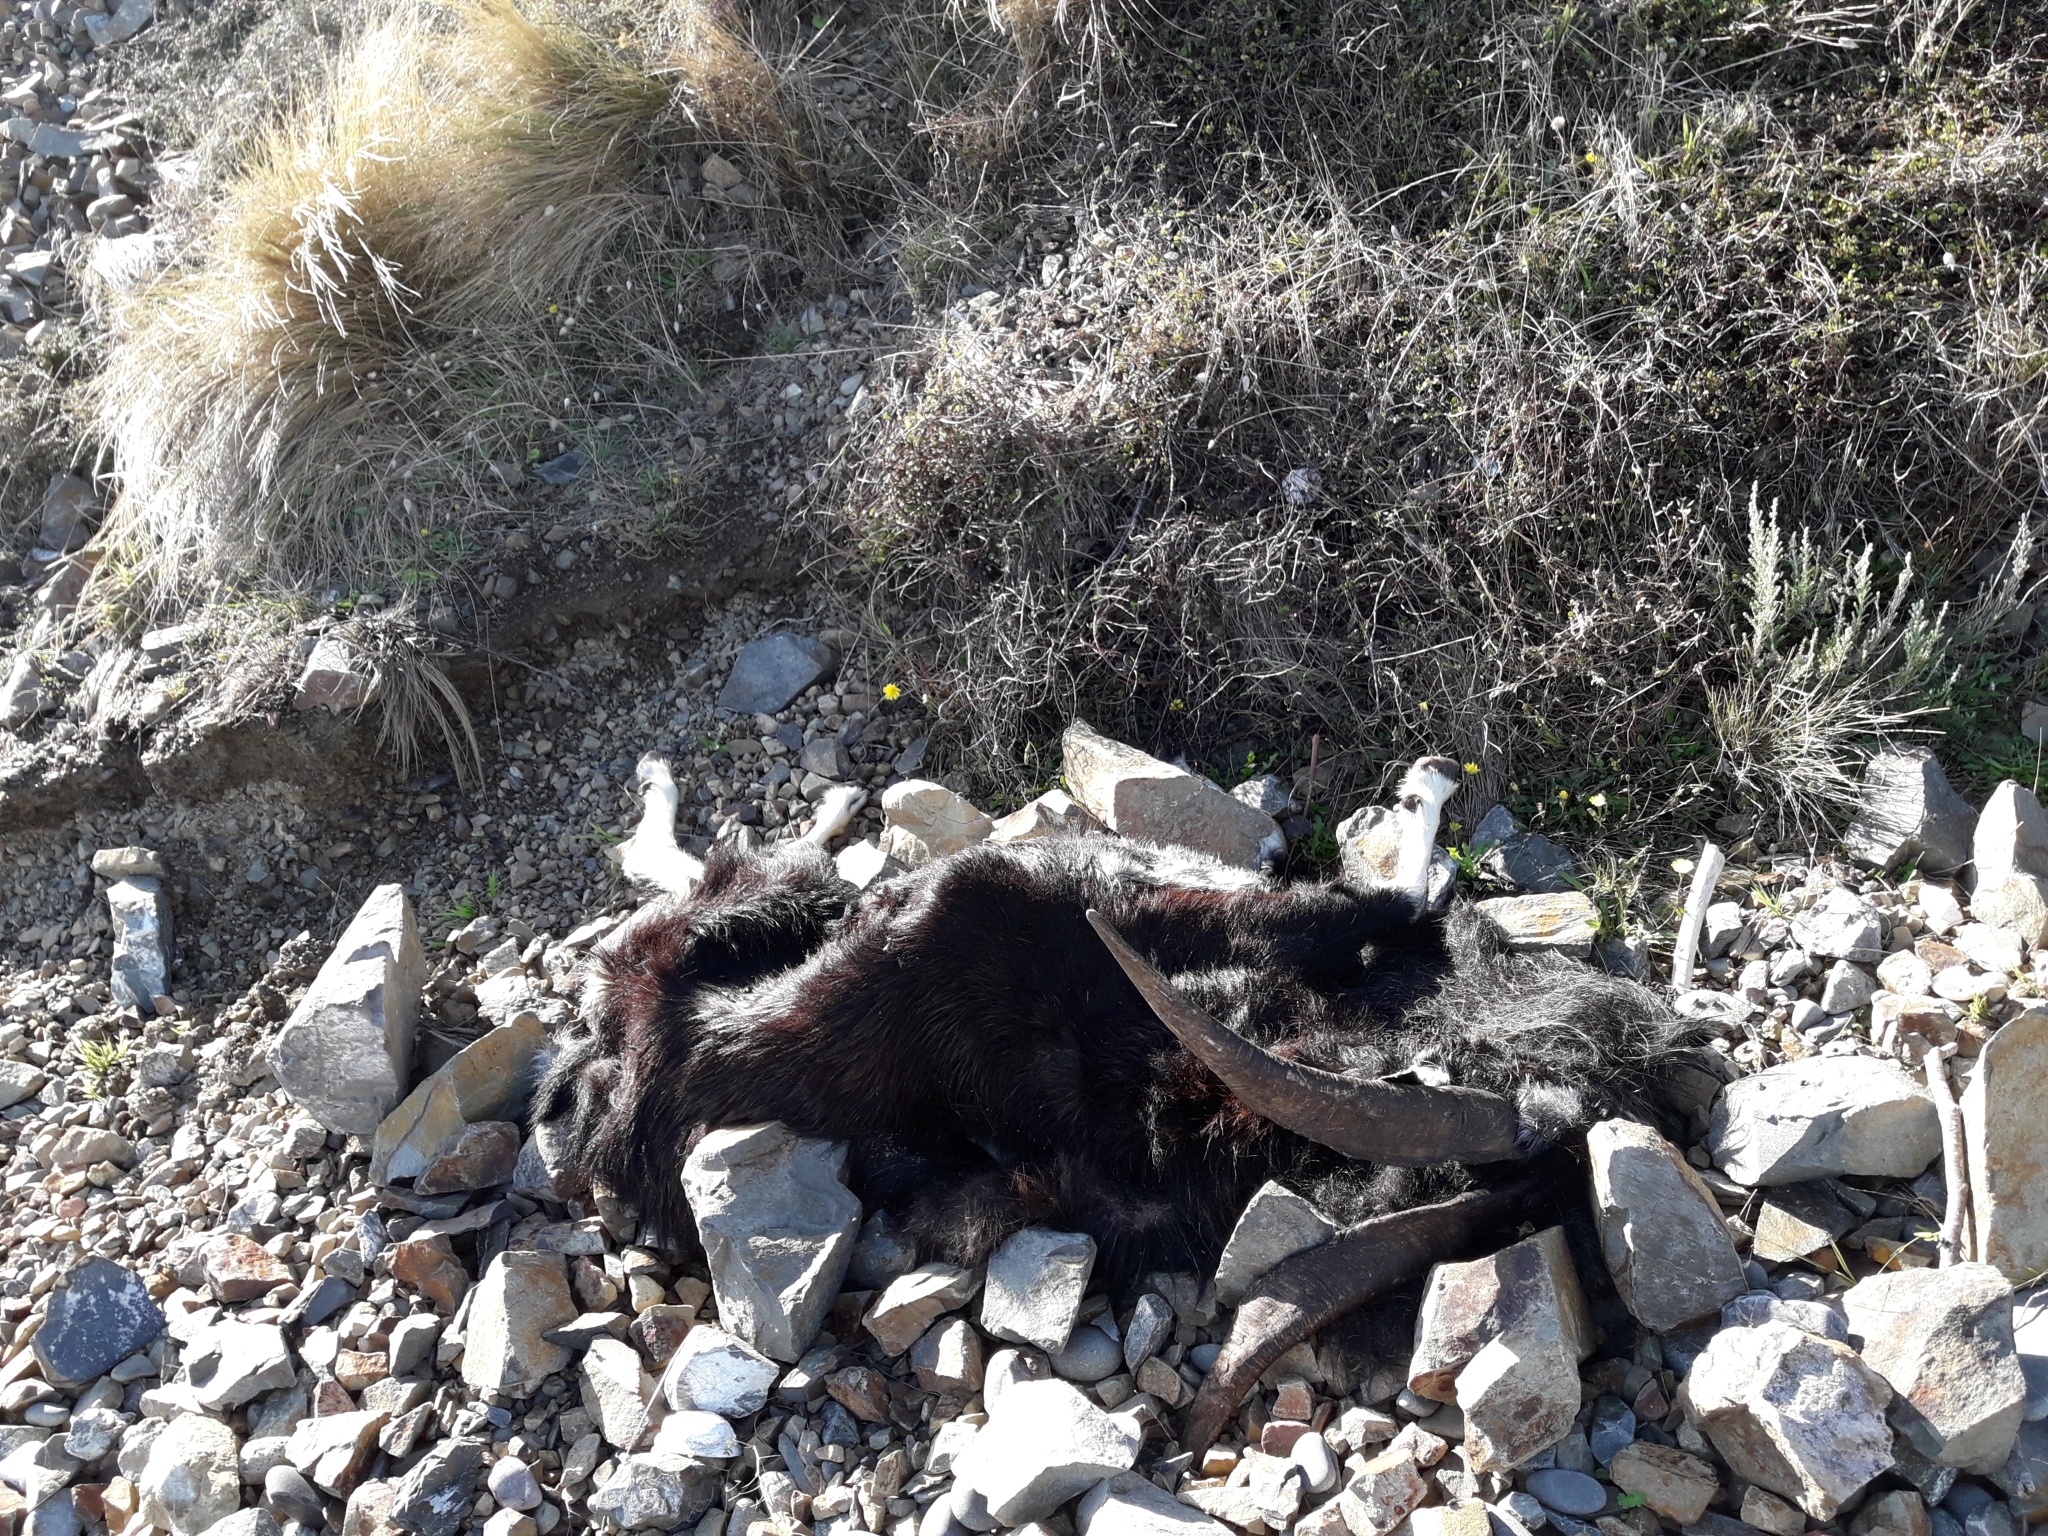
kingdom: Animalia
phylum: Chordata
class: Mammalia
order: Artiodactyla
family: Bovidae
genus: Capra
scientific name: Capra hircus
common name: Domestic goat
